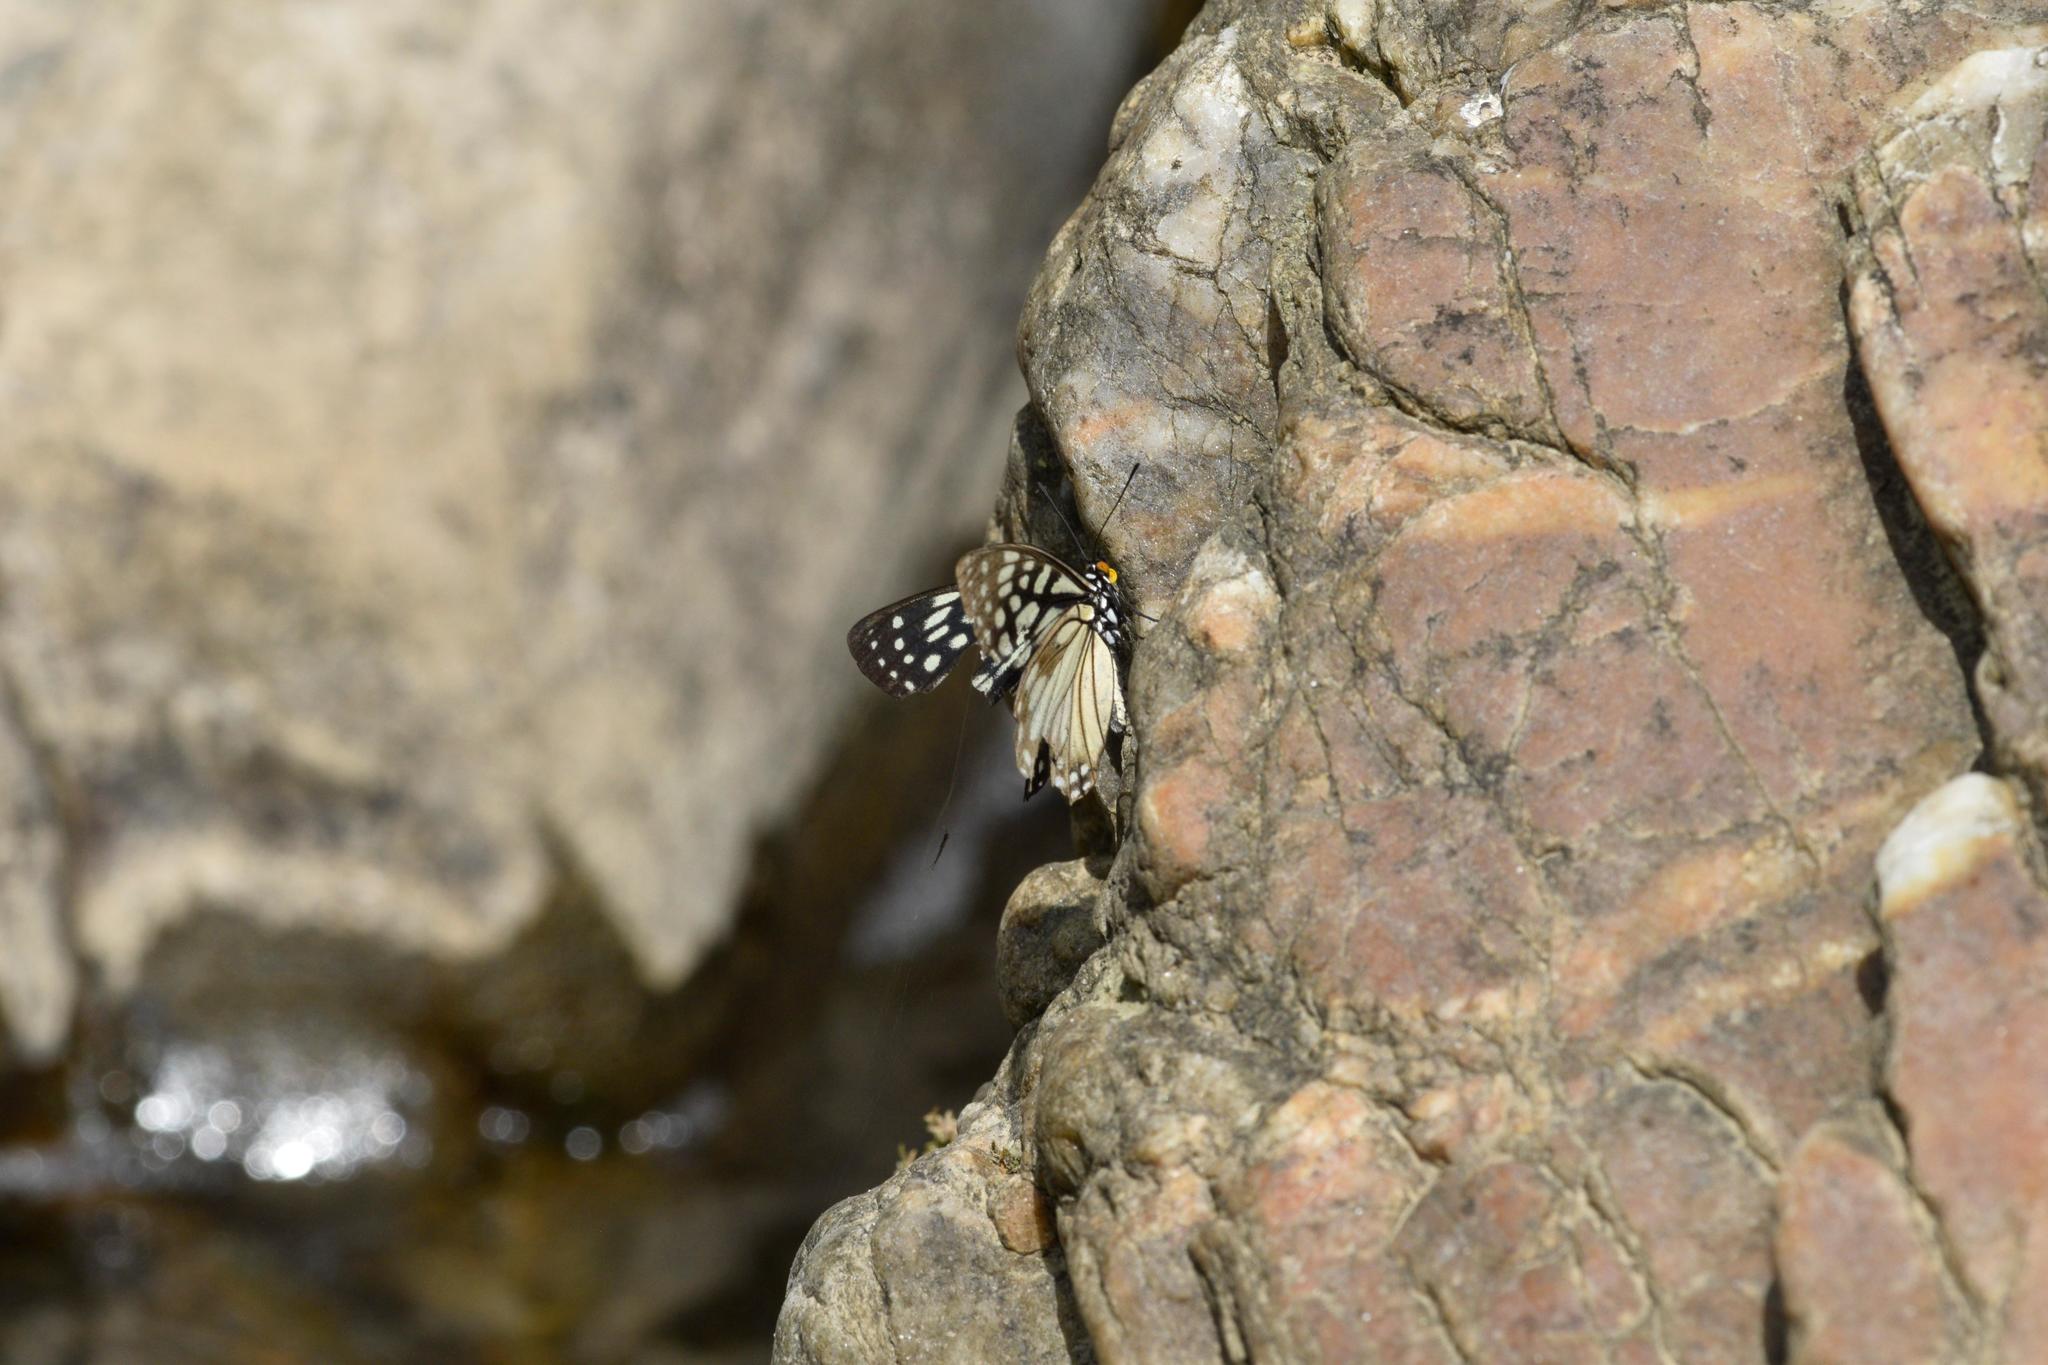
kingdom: Animalia
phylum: Arthropoda
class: Insecta
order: Lepidoptera
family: Nymphalidae
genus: Hestina
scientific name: Hestina persimilis
